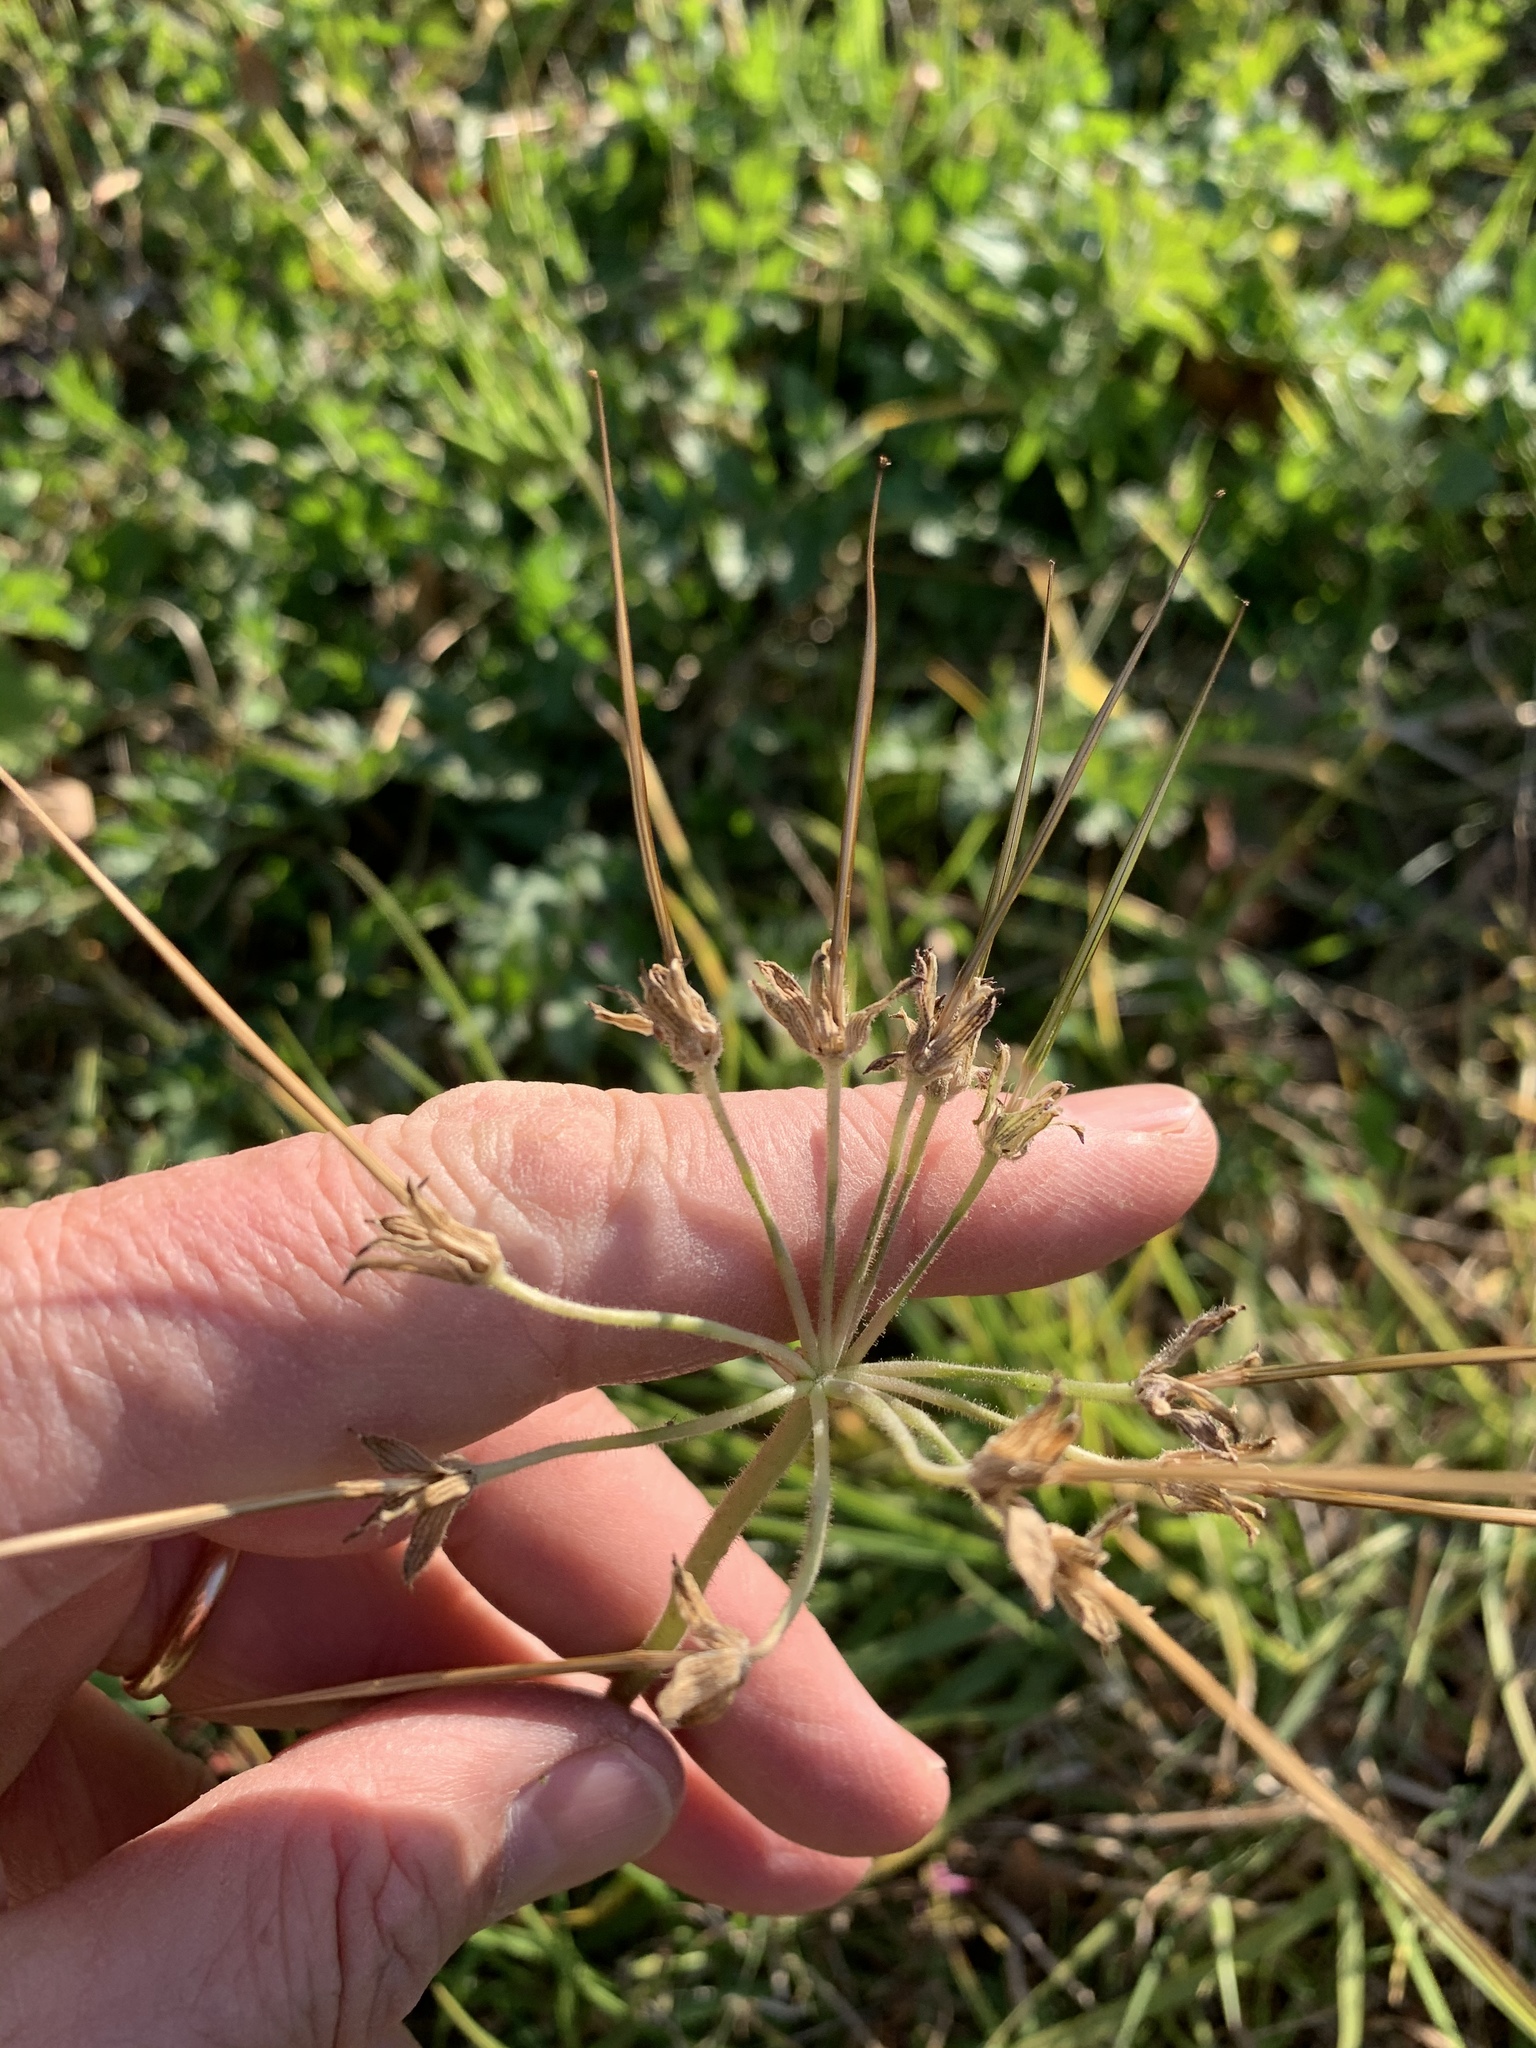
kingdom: Plantae
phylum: Tracheophyta
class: Magnoliopsida
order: Geraniales
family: Geraniaceae
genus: Erodium
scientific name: Erodium moschatum
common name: Musk stork's-bill
